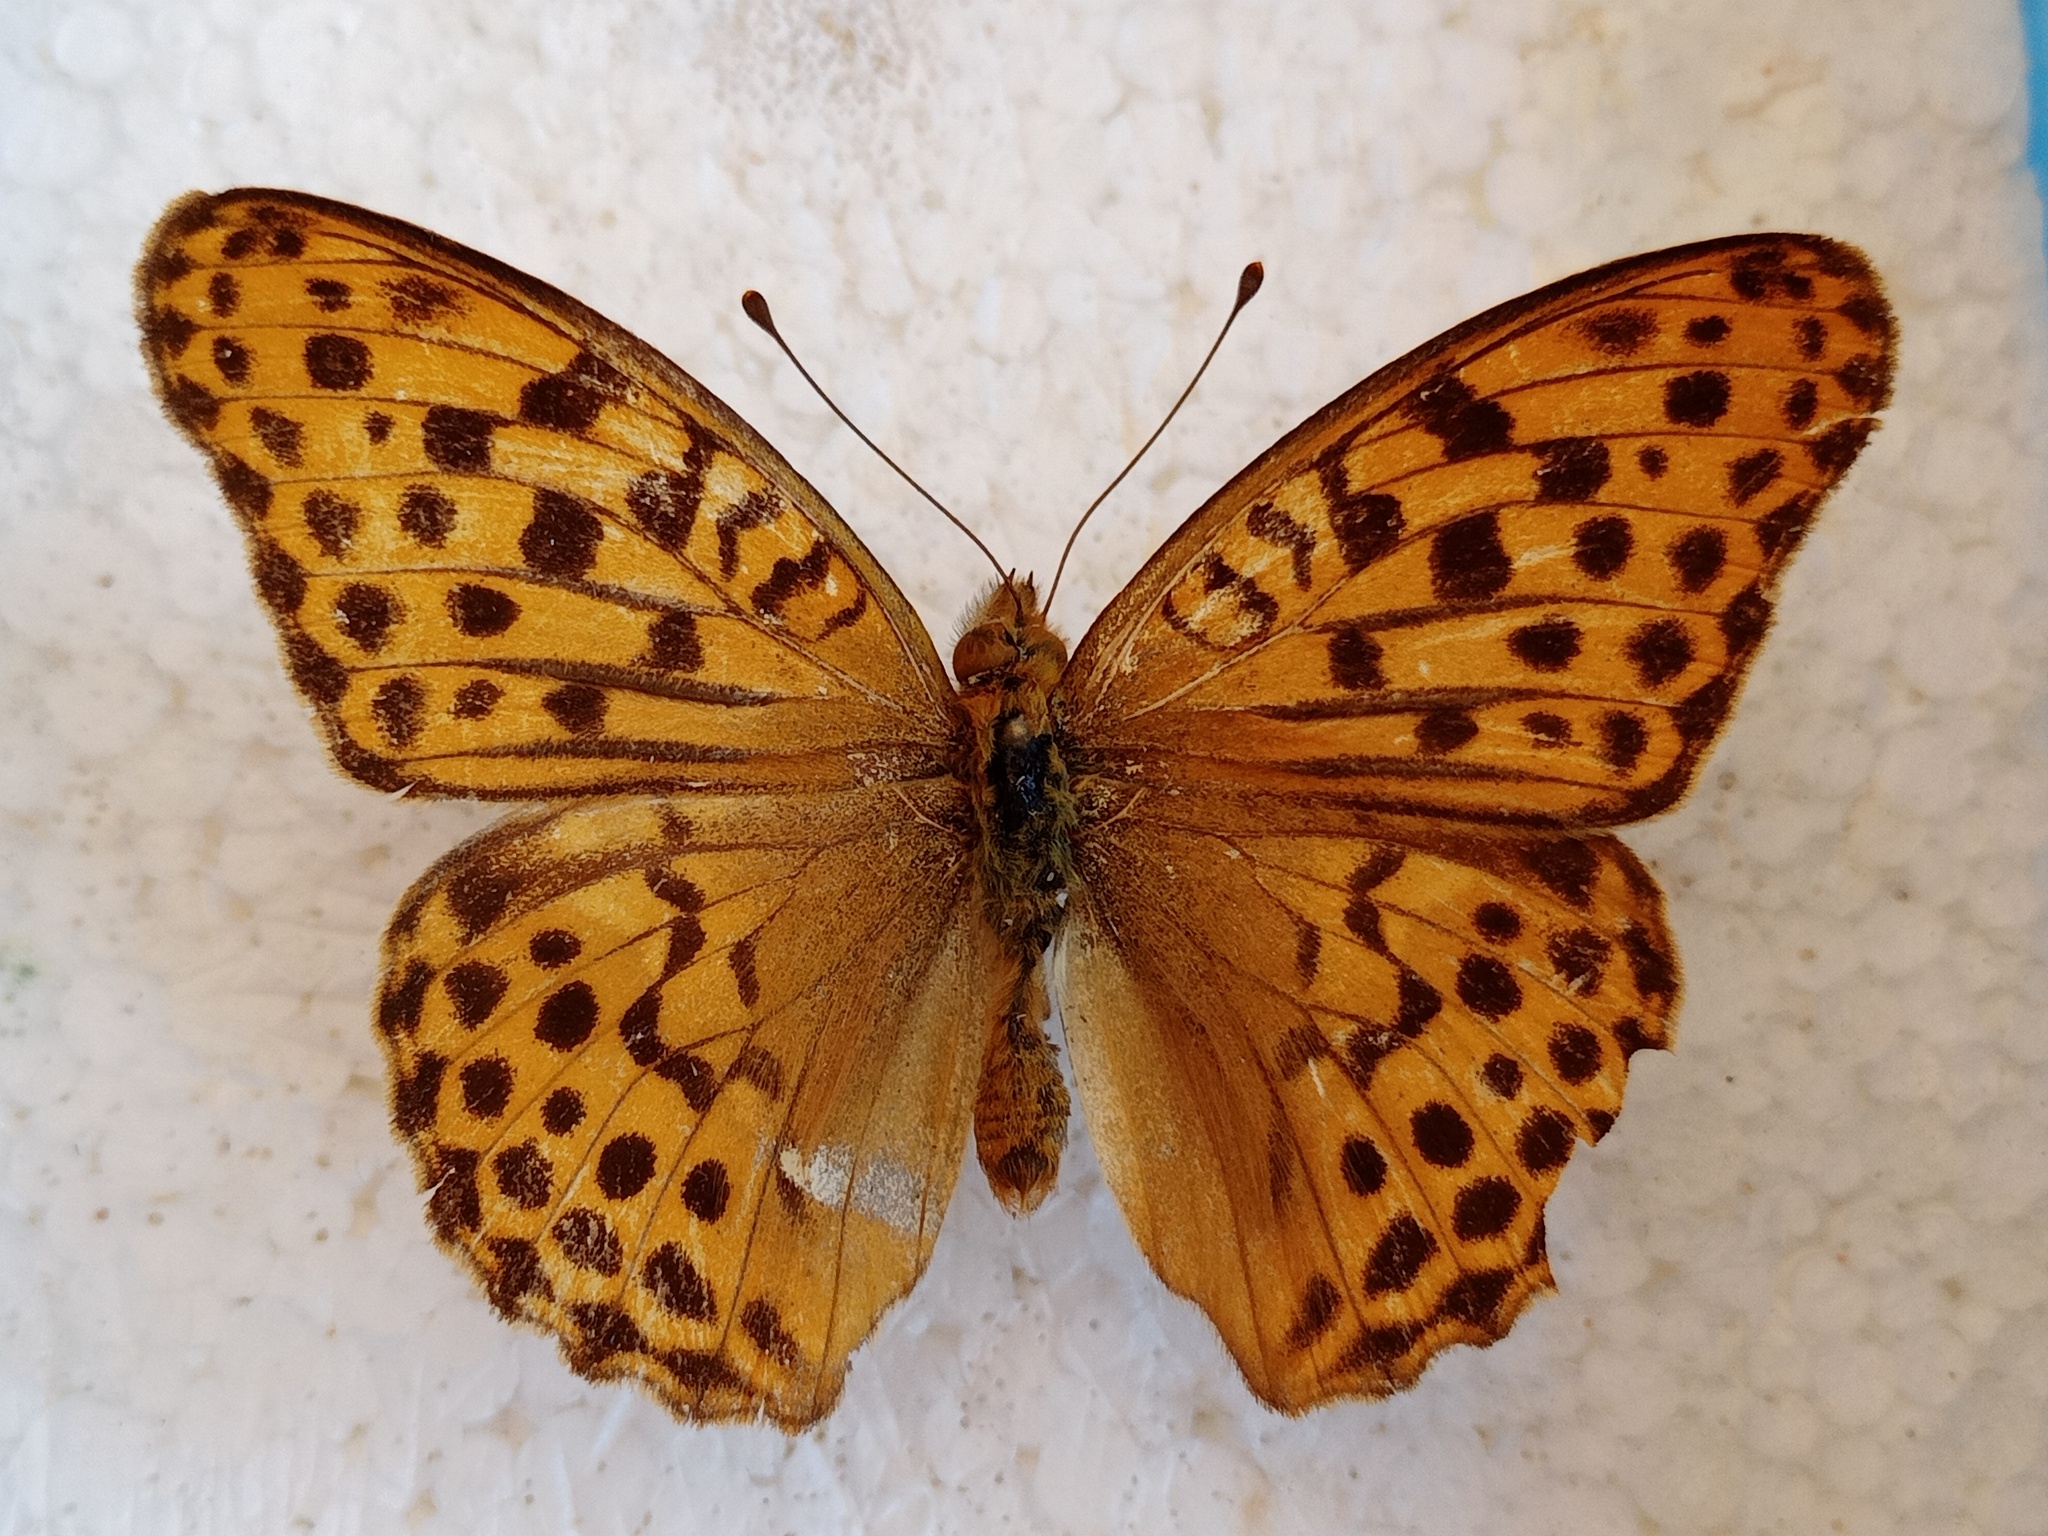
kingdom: Animalia
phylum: Arthropoda
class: Insecta
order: Lepidoptera
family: Nymphalidae
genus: Argyronome
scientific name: Argyronome ruslana
